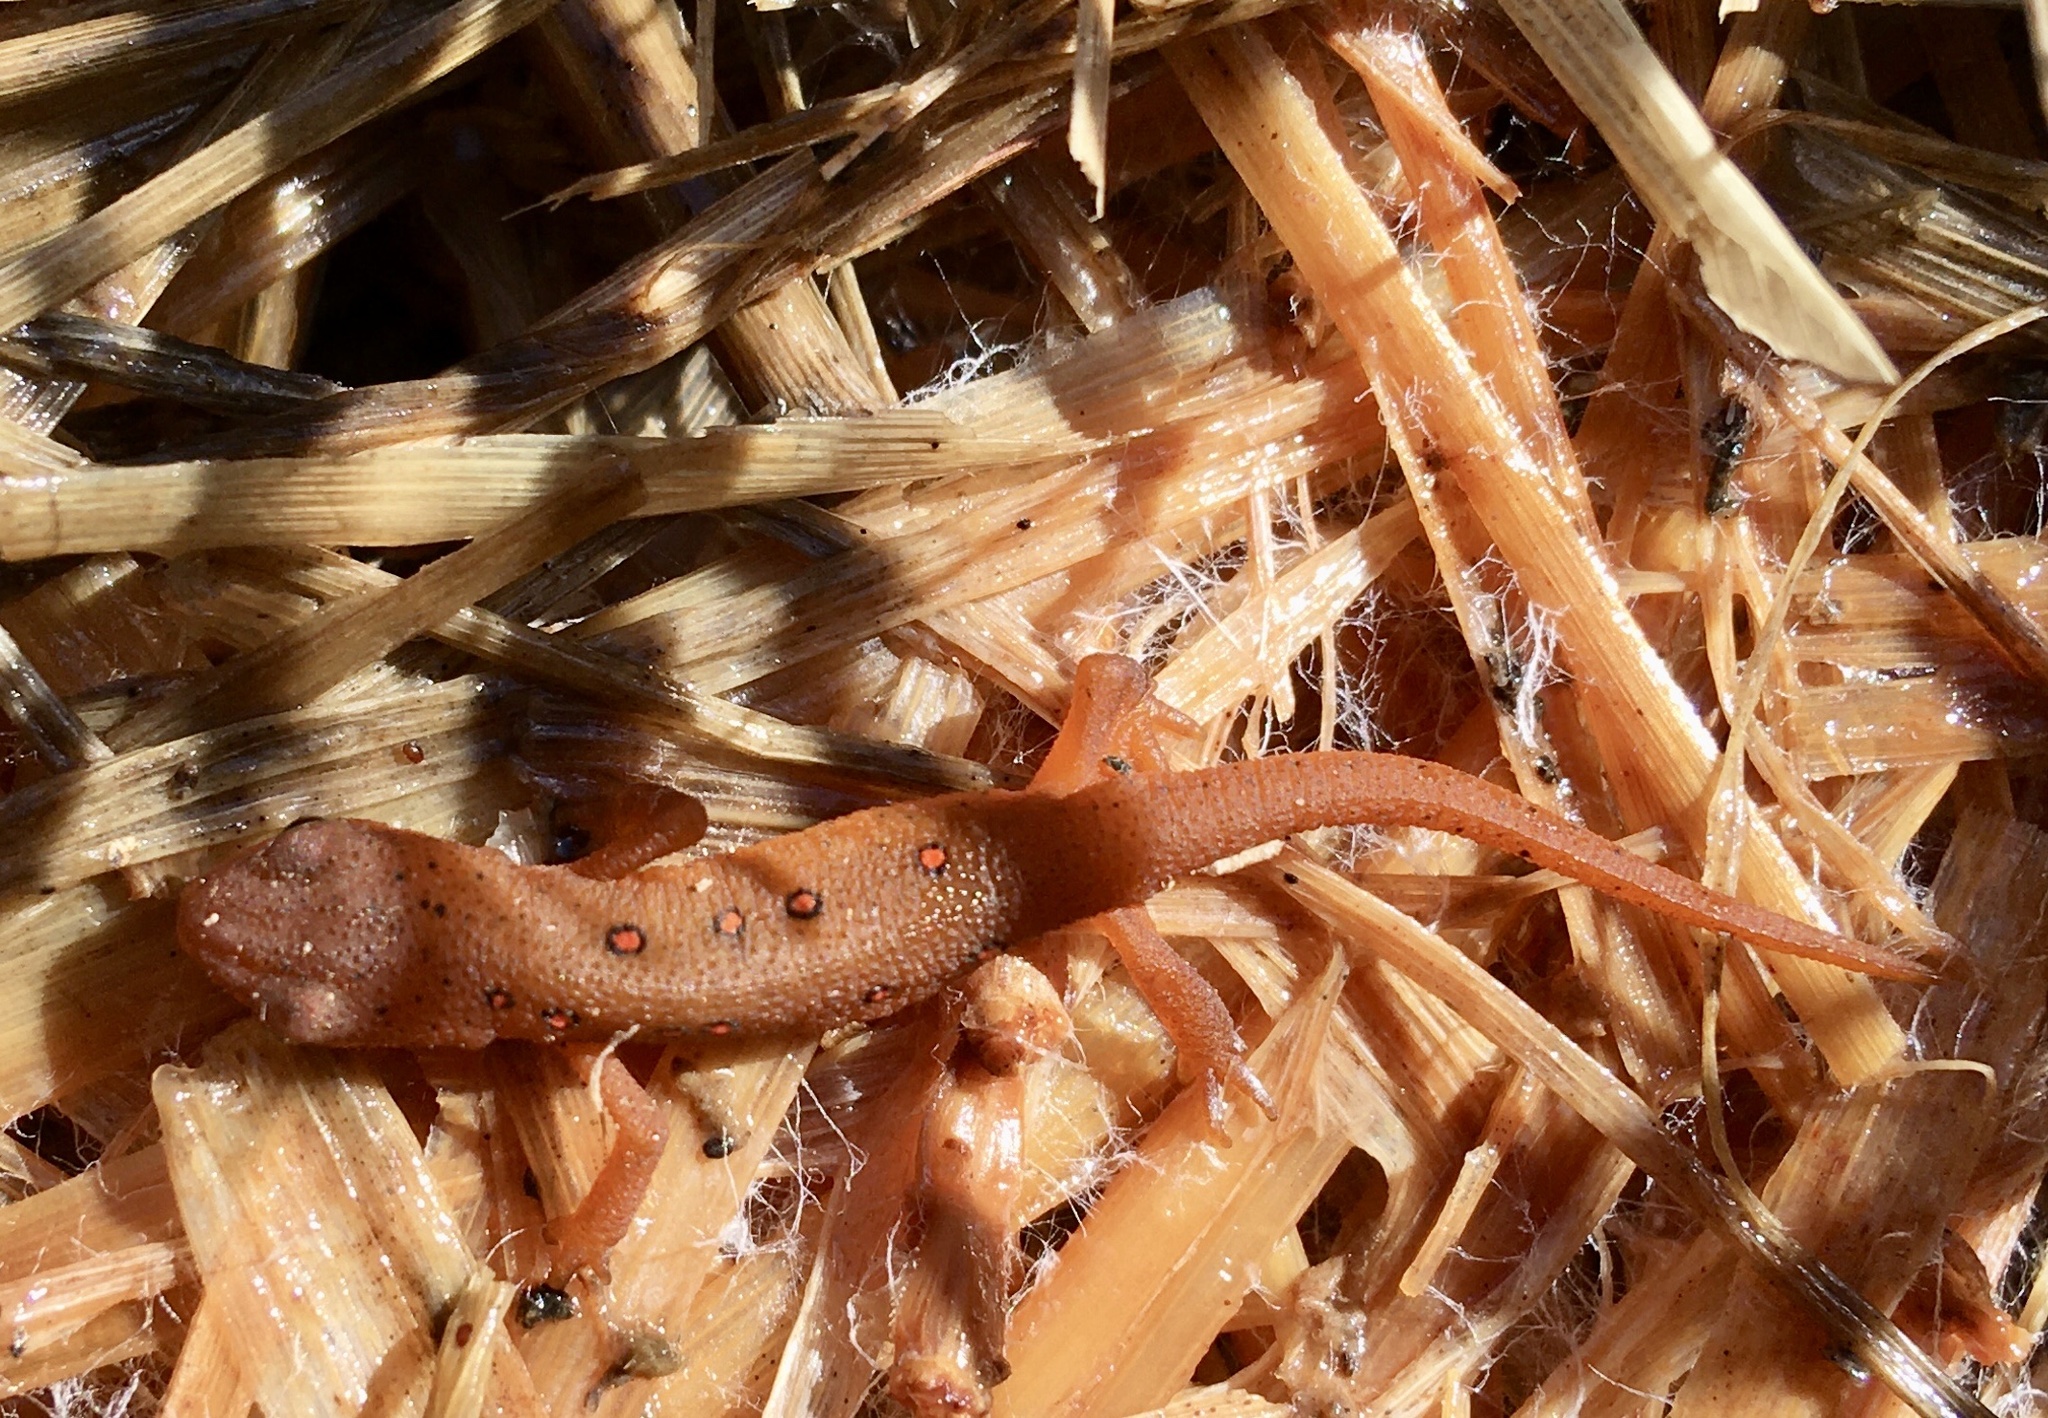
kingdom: Animalia
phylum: Chordata
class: Amphibia
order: Caudata
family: Salamandridae
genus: Notophthalmus
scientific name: Notophthalmus viridescens
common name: Eastern newt
